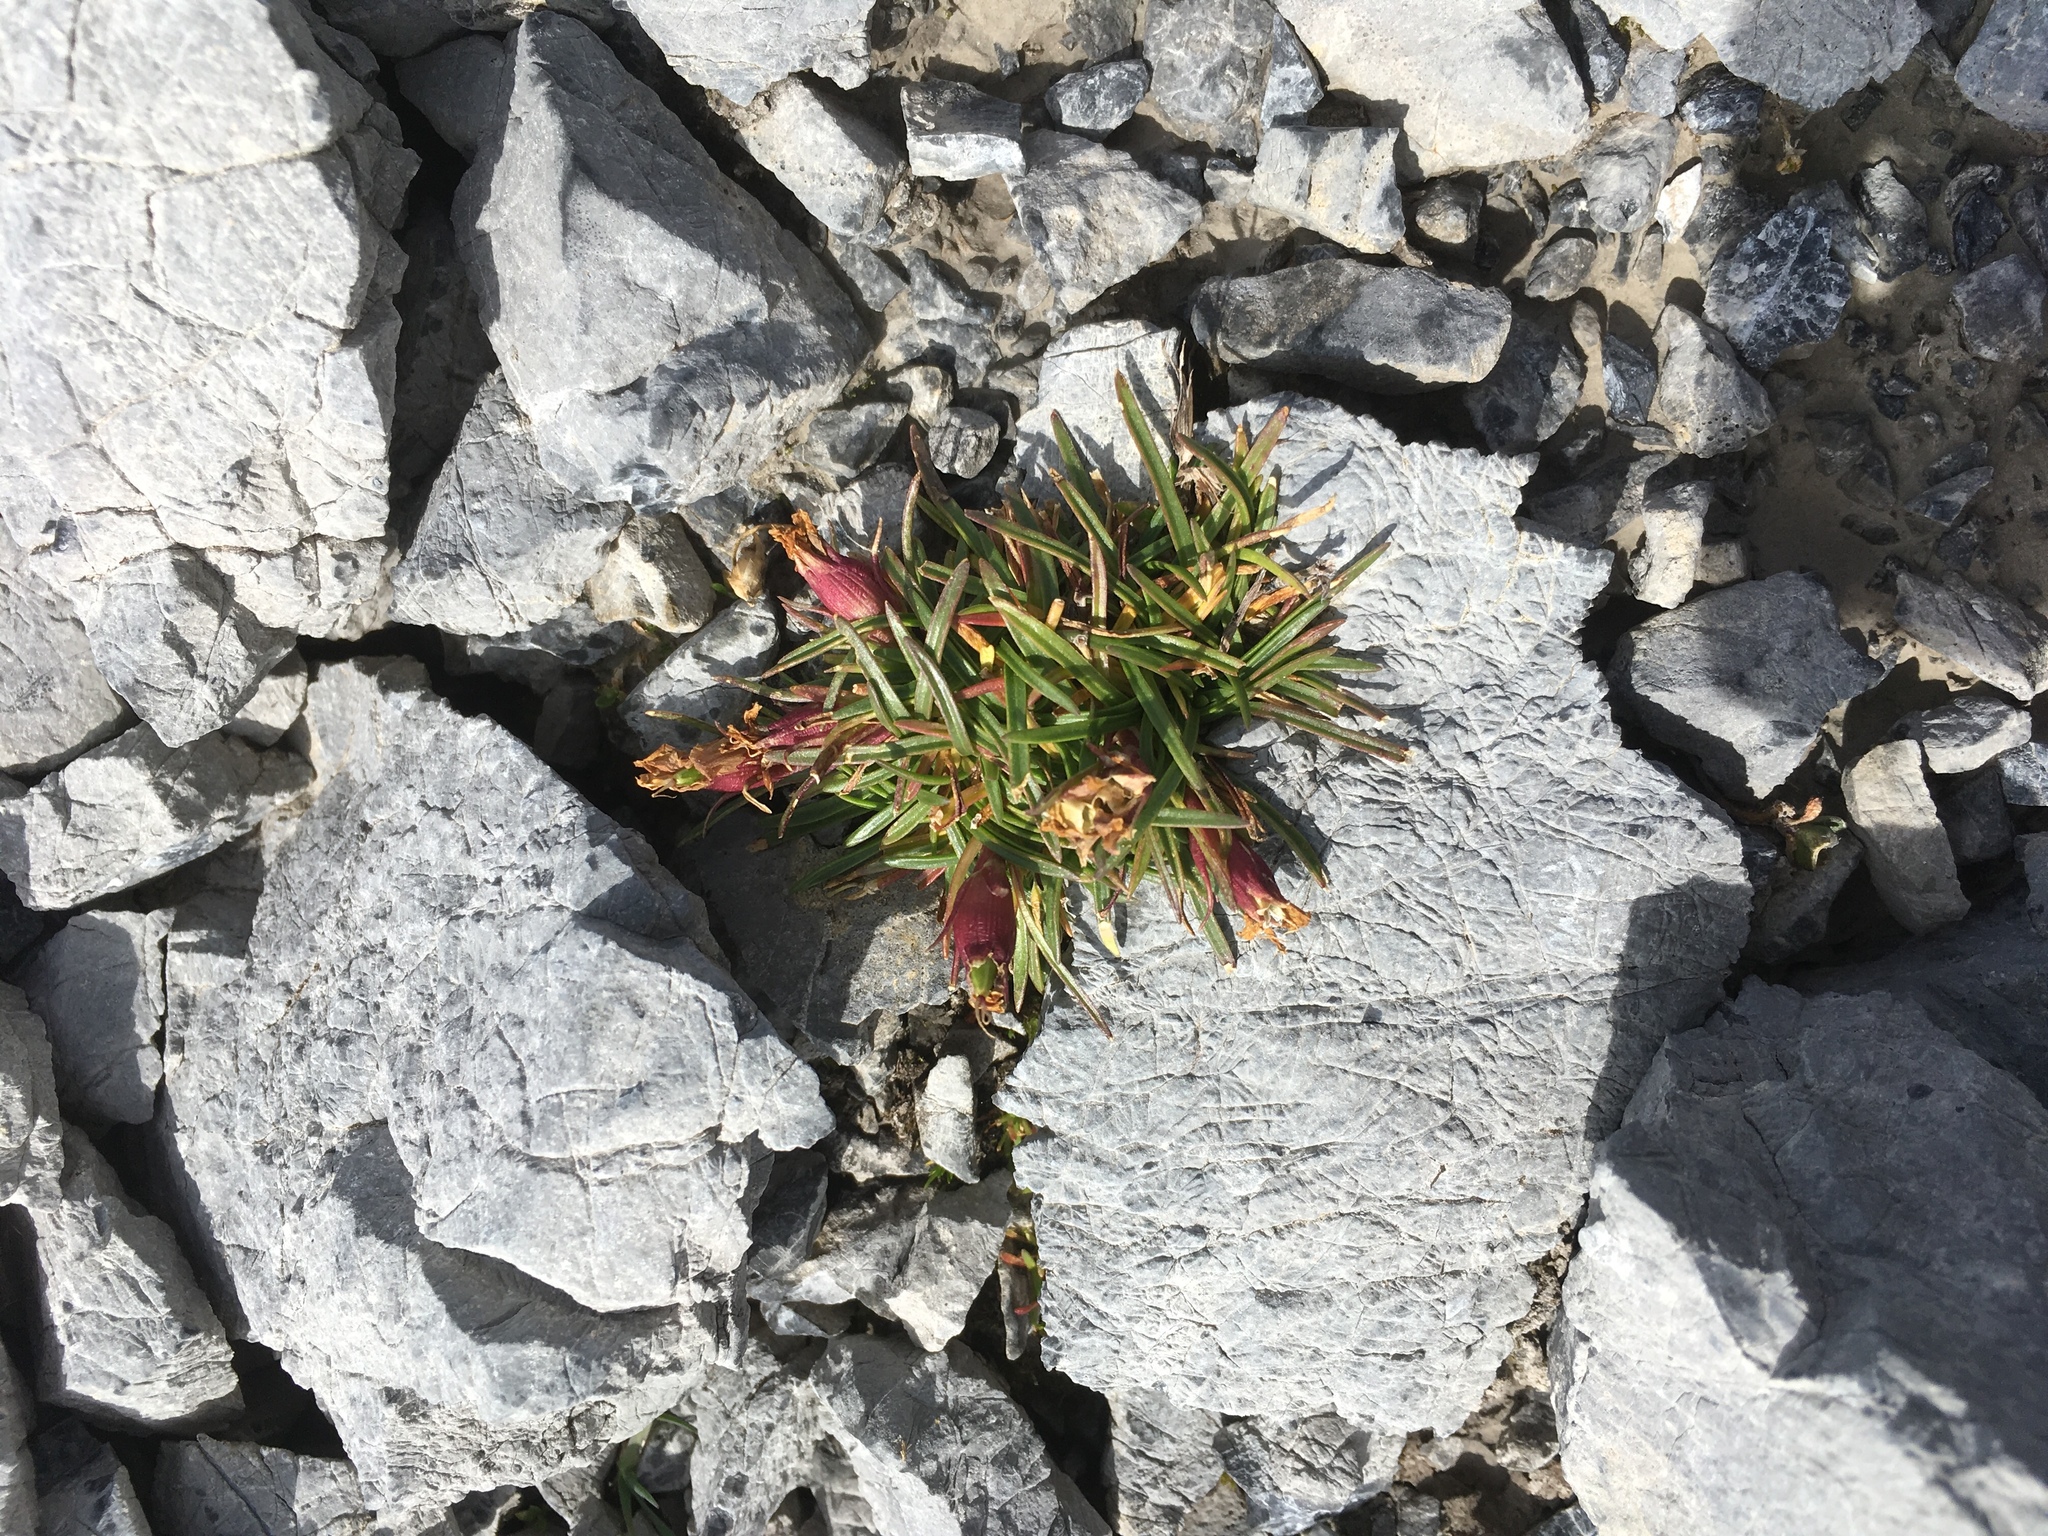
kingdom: Plantae
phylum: Tracheophyta
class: Magnoliopsida
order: Caryophyllales
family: Caryophyllaceae
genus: Dianthus
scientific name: Dianthus glacialis
